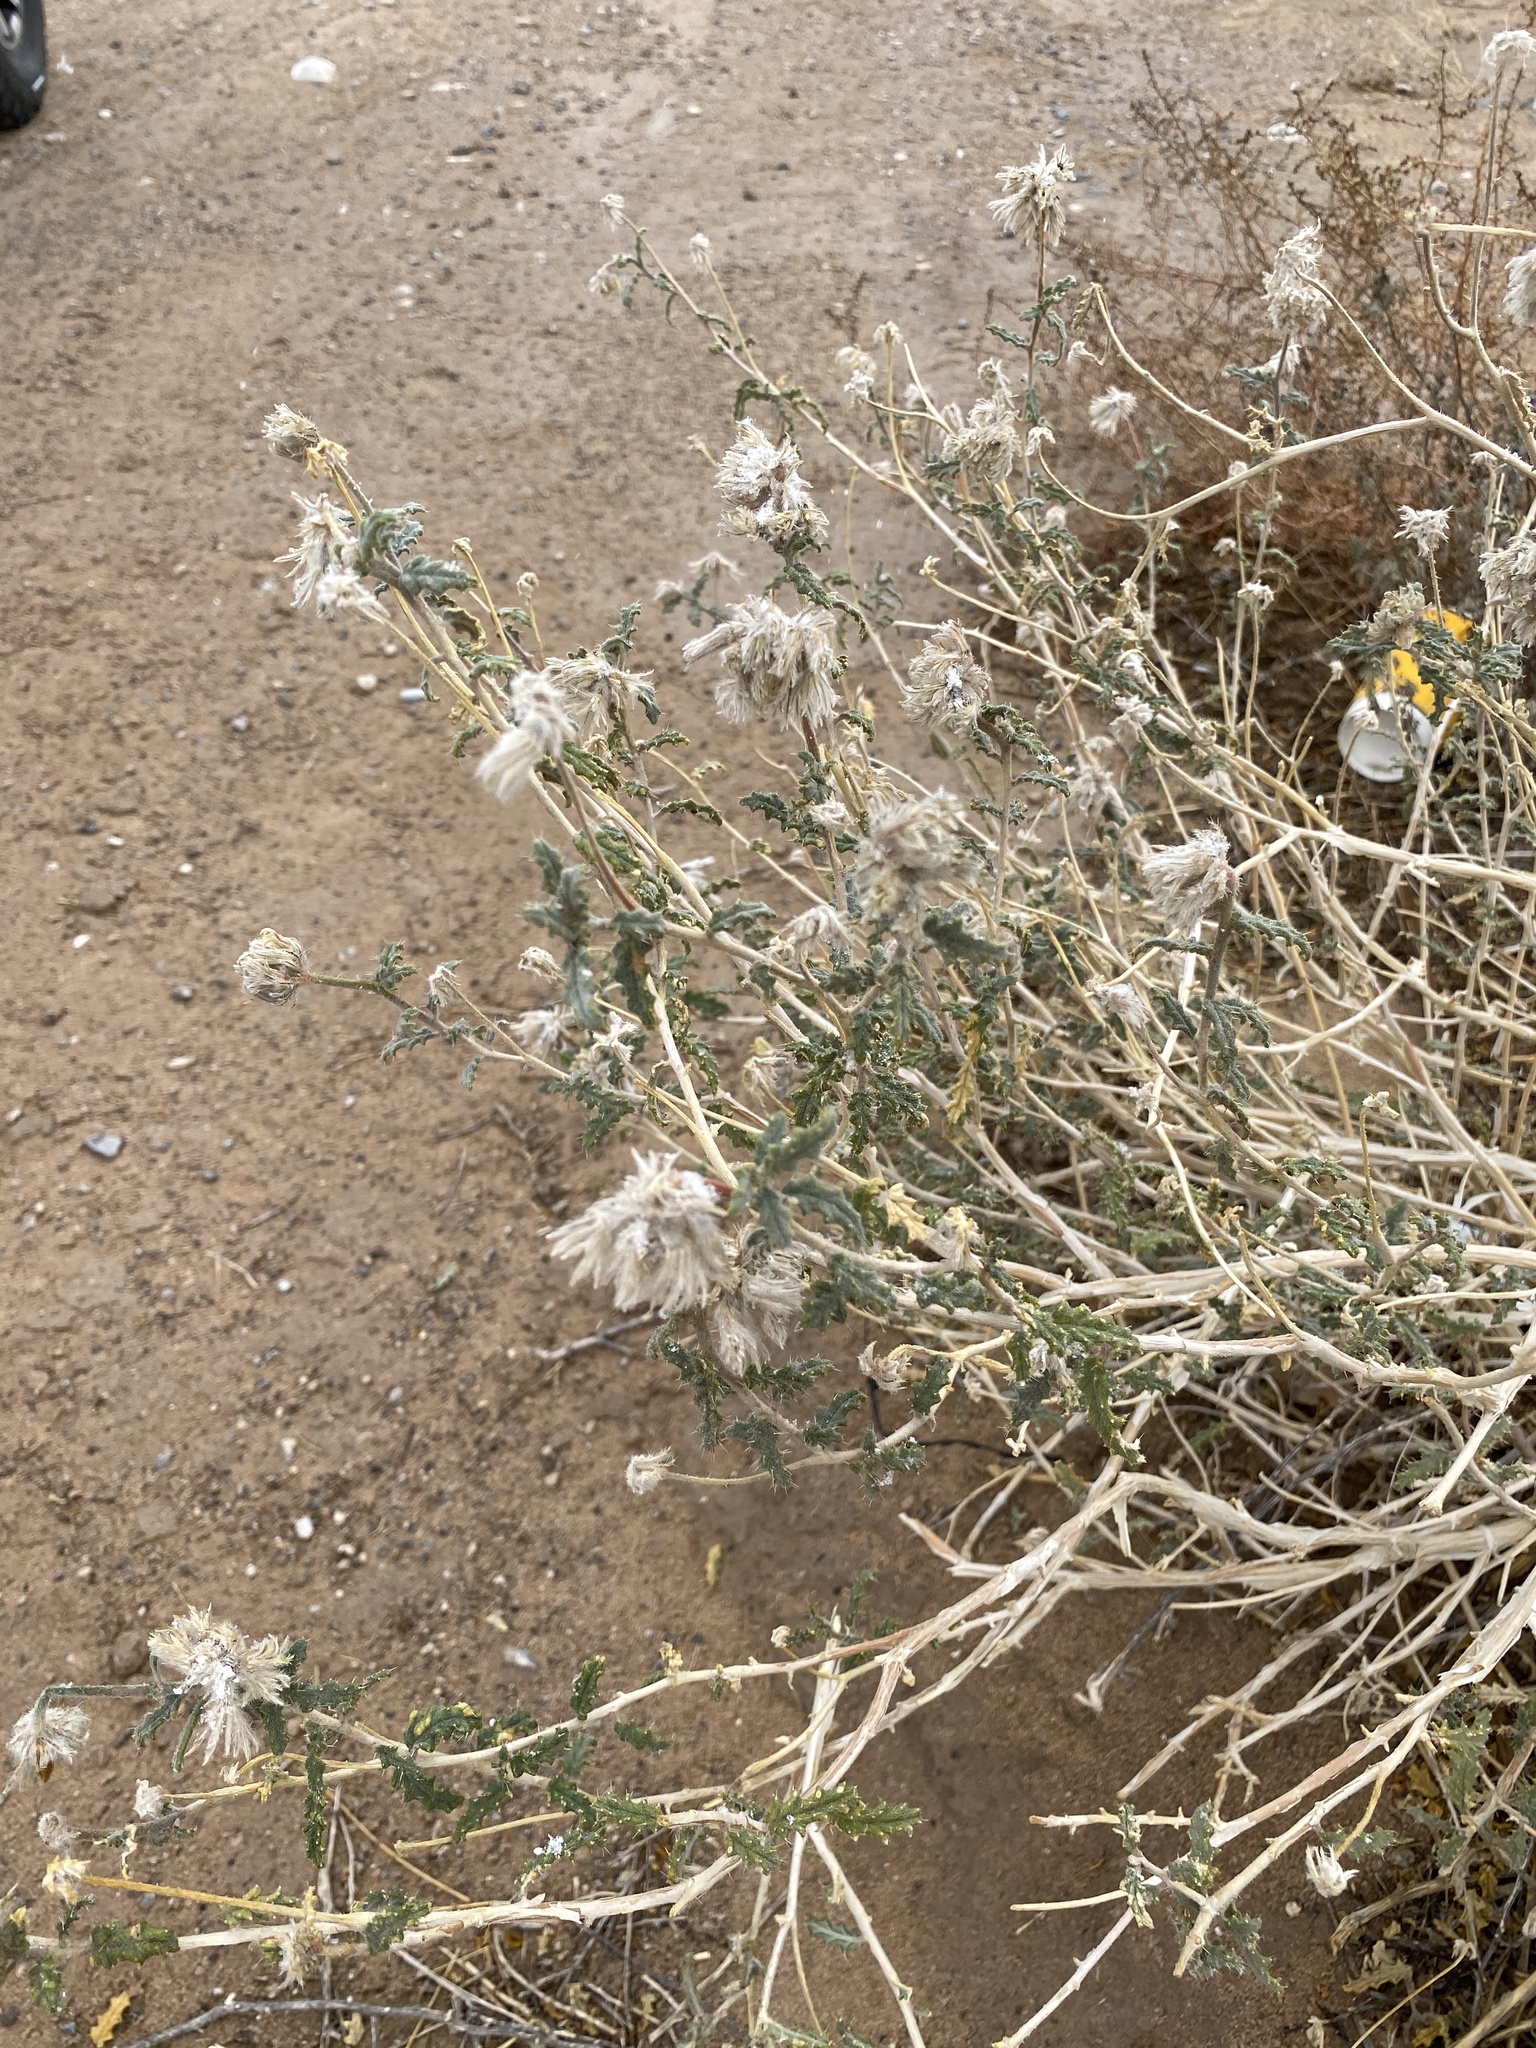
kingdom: Plantae
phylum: Tracheophyta
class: Magnoliopsida
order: Cornales
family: Loasaceae
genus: Cevallia
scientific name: Cevallia sinuata
